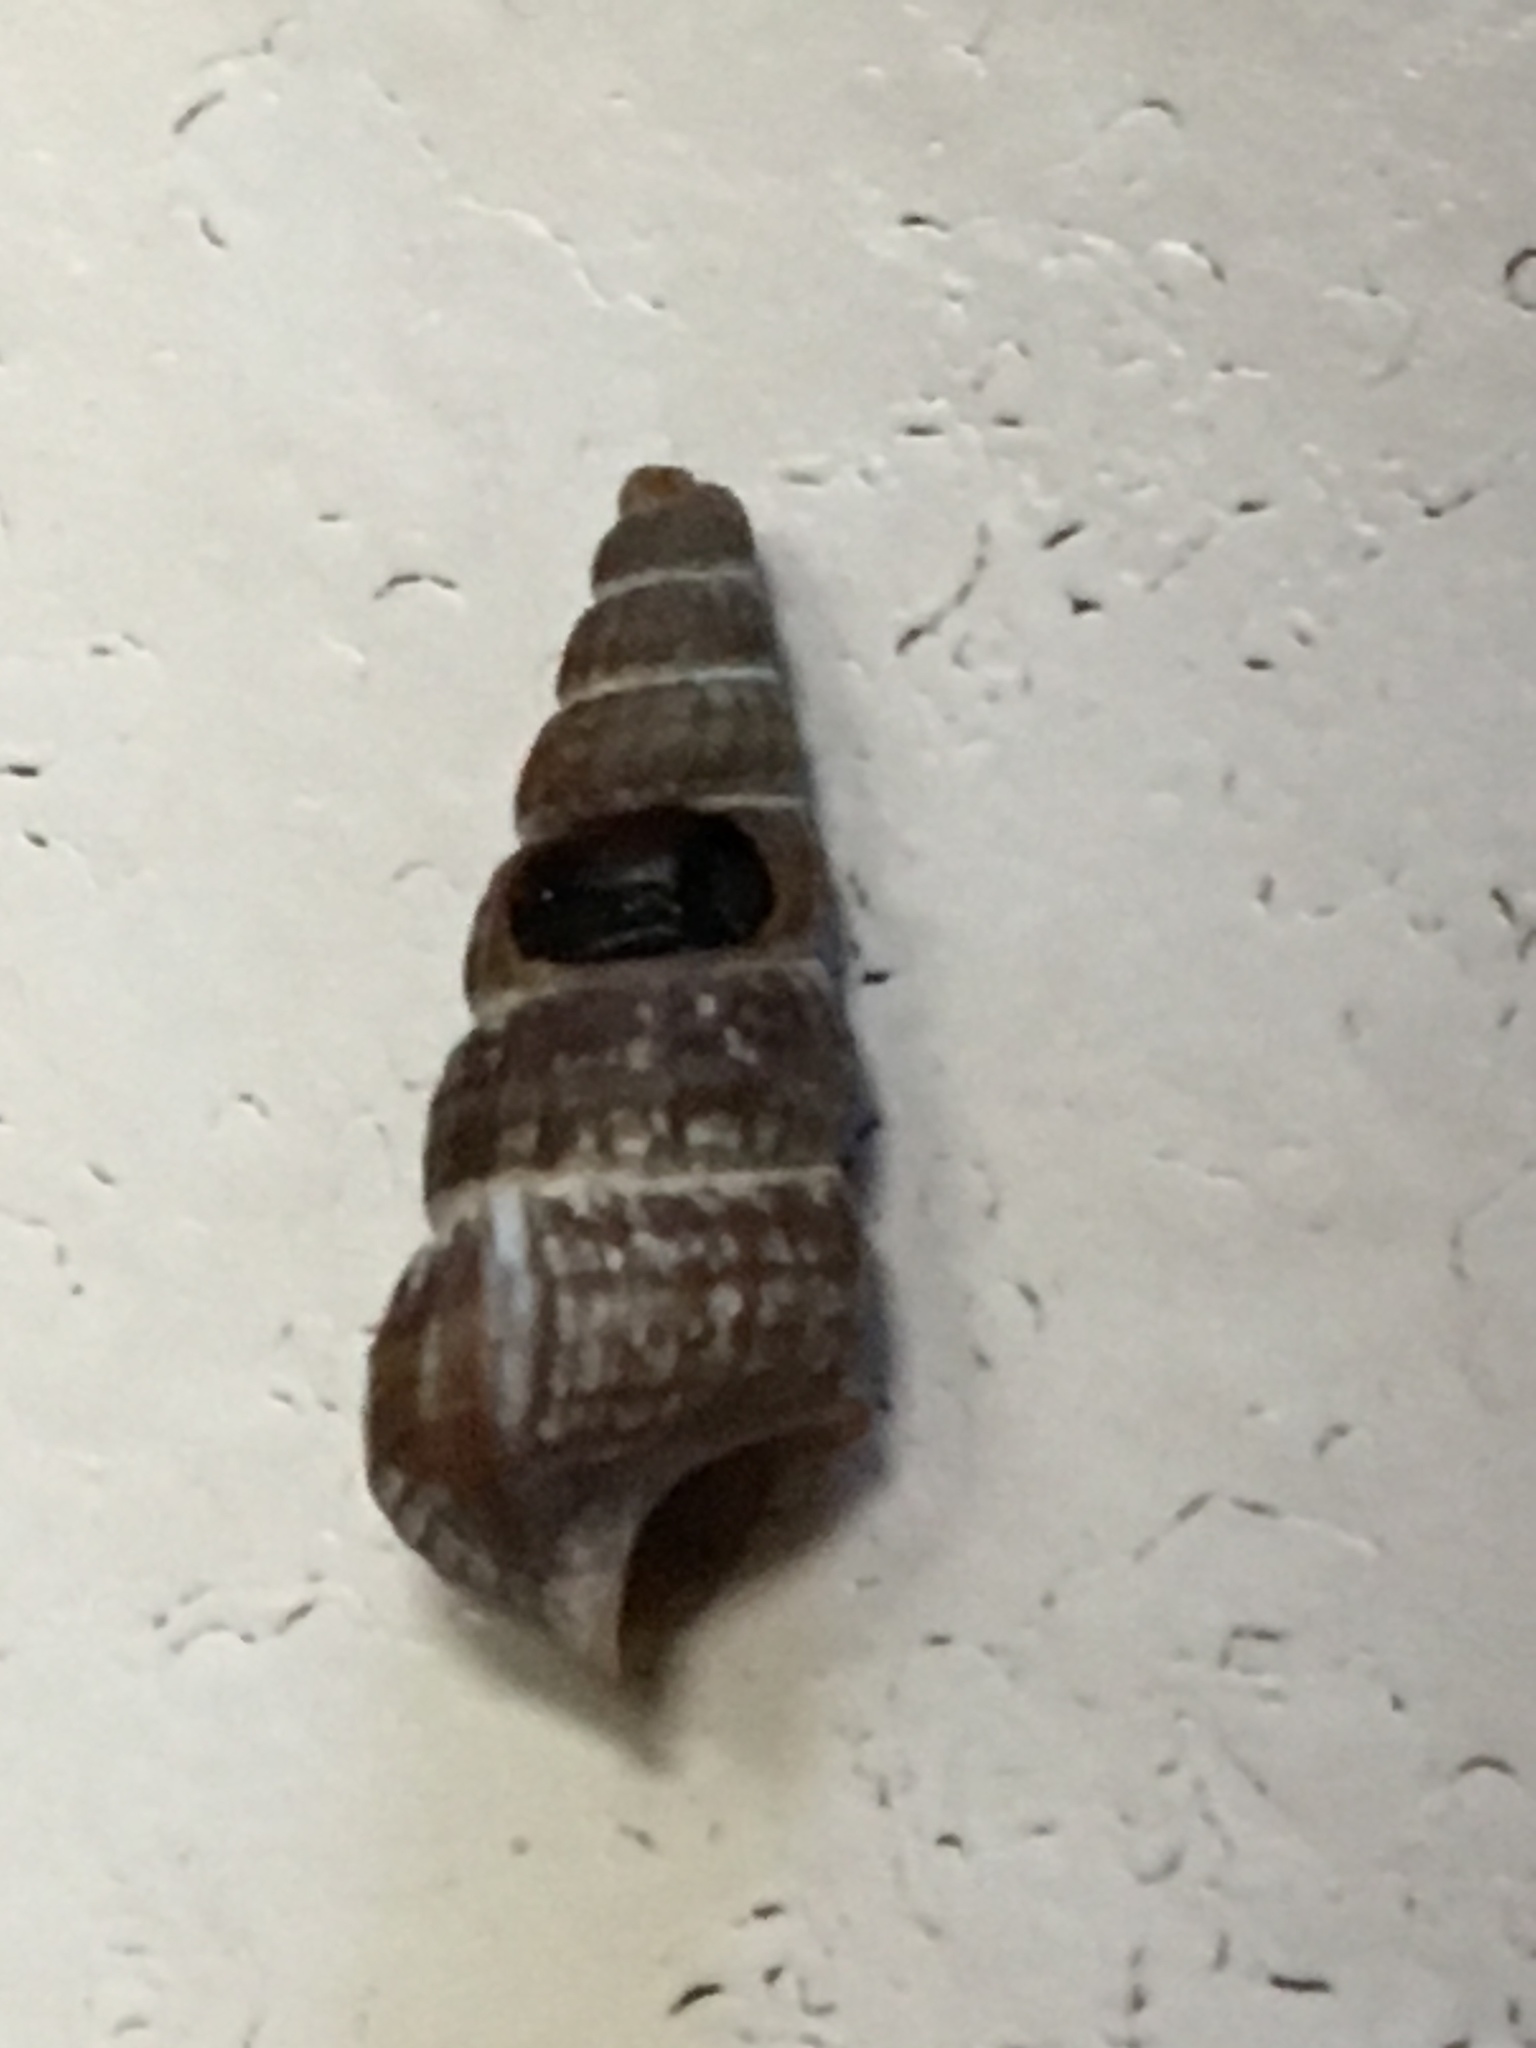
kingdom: Animalia
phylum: Mollusca
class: Gastropoda
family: Potamididae
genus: Cerithideopsis
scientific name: Cerithideopsis californica
